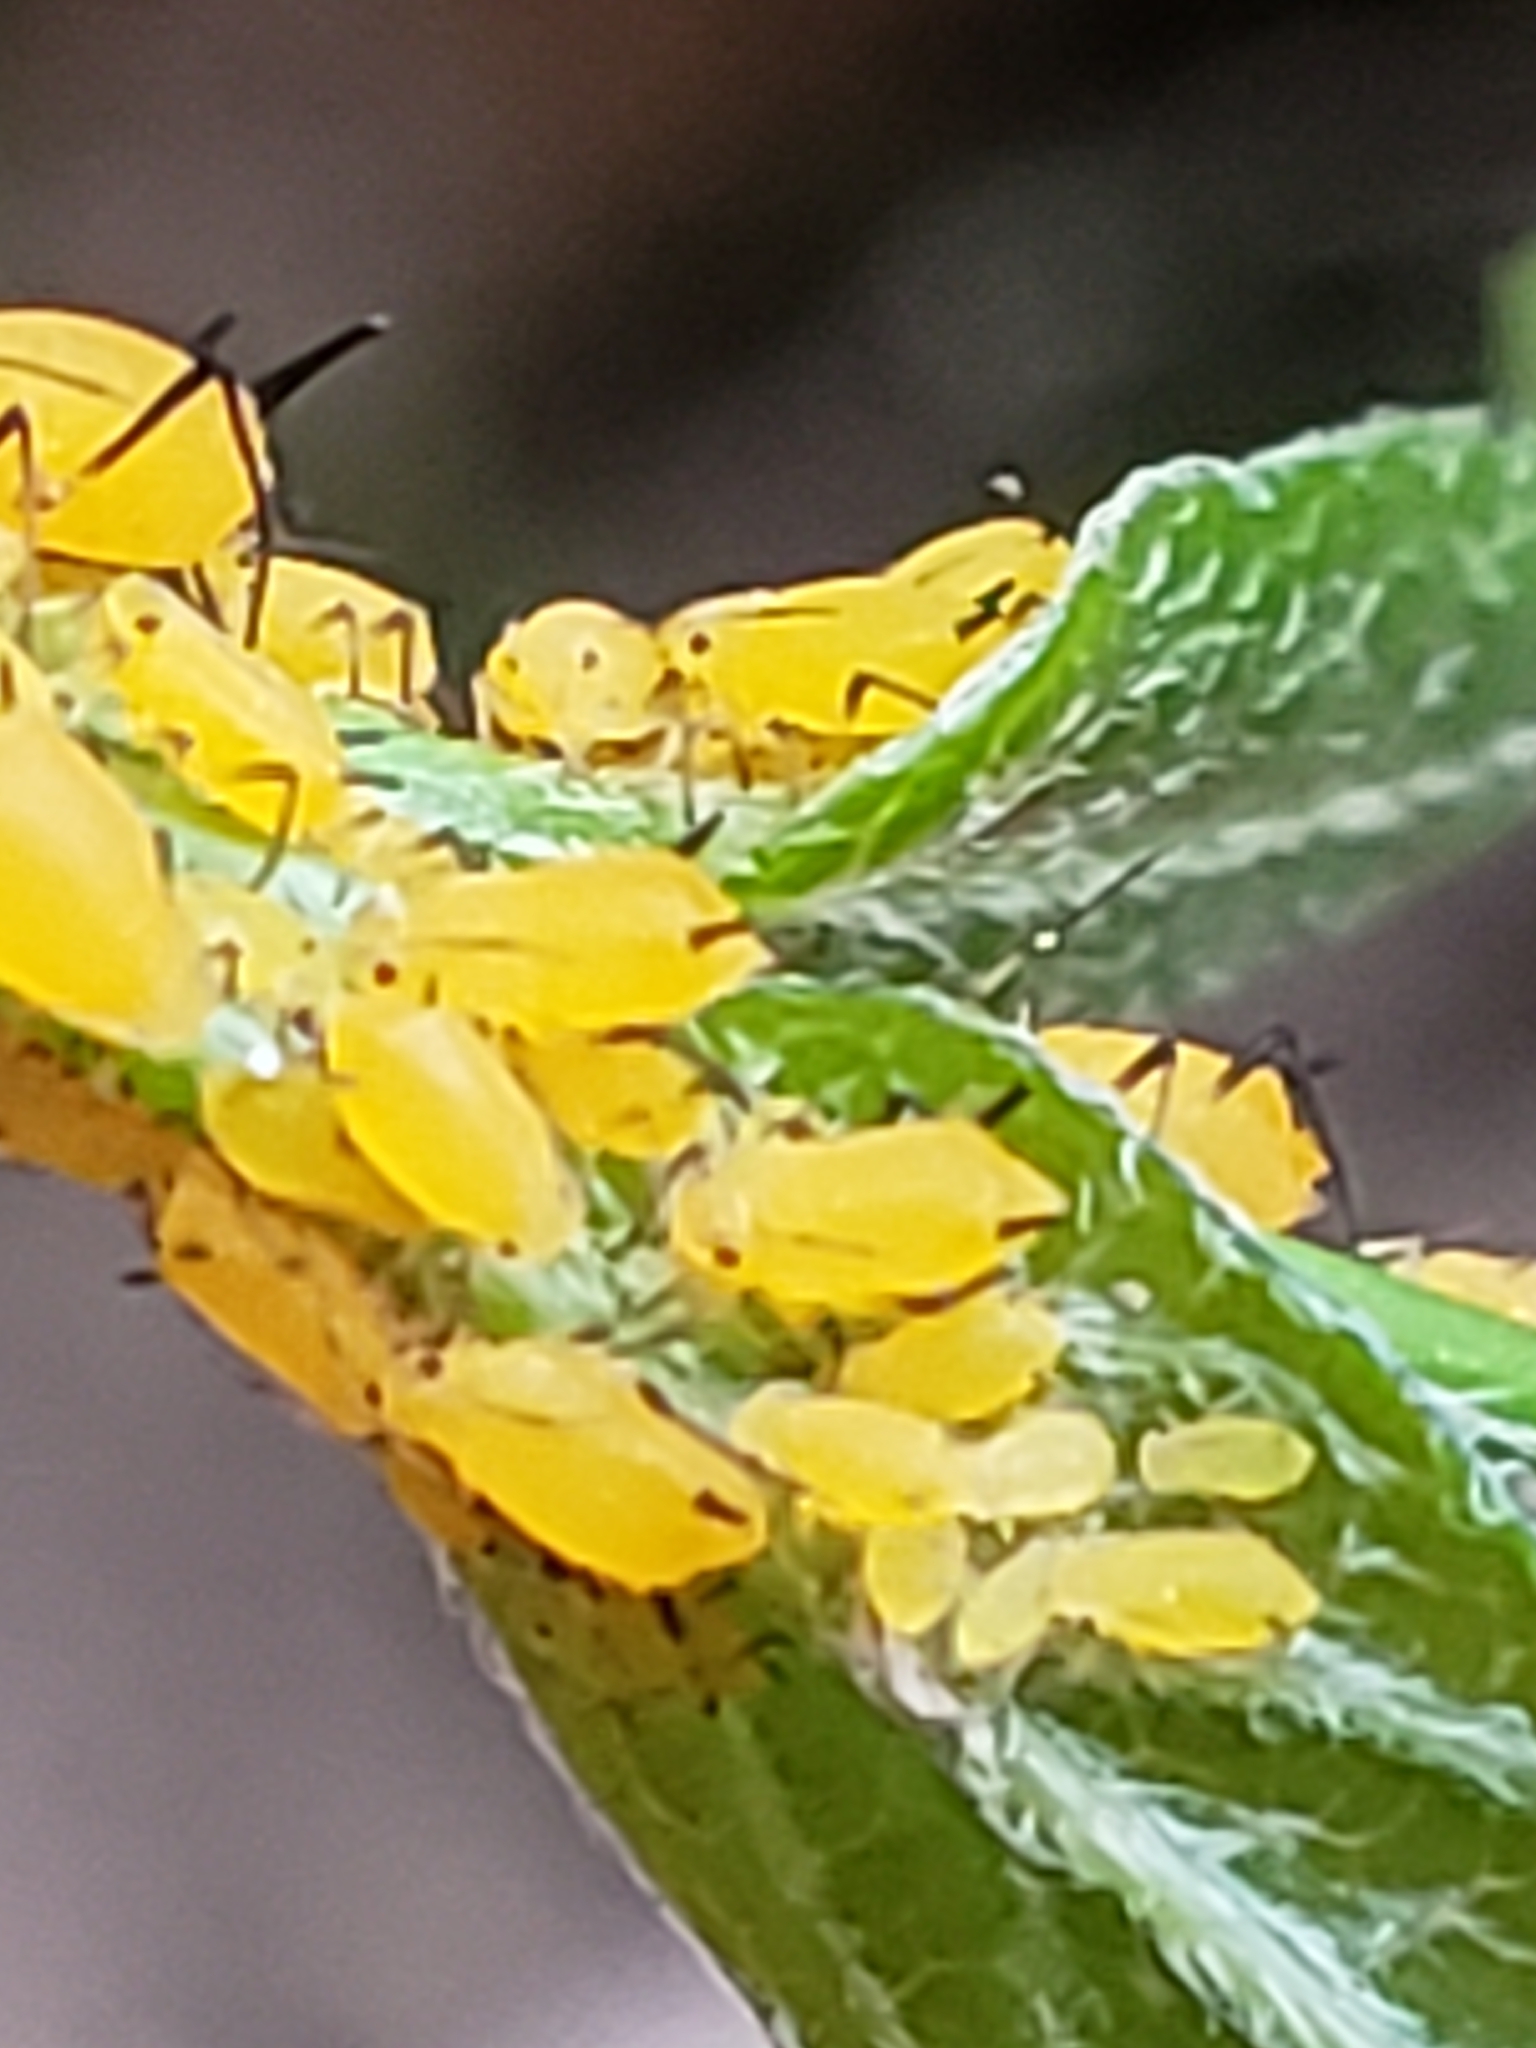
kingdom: Animalia
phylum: Arthropoda
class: Insecta
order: Hemiptera
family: Aphididae
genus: Aphis
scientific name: Aphis nerii
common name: Oleander aphid
